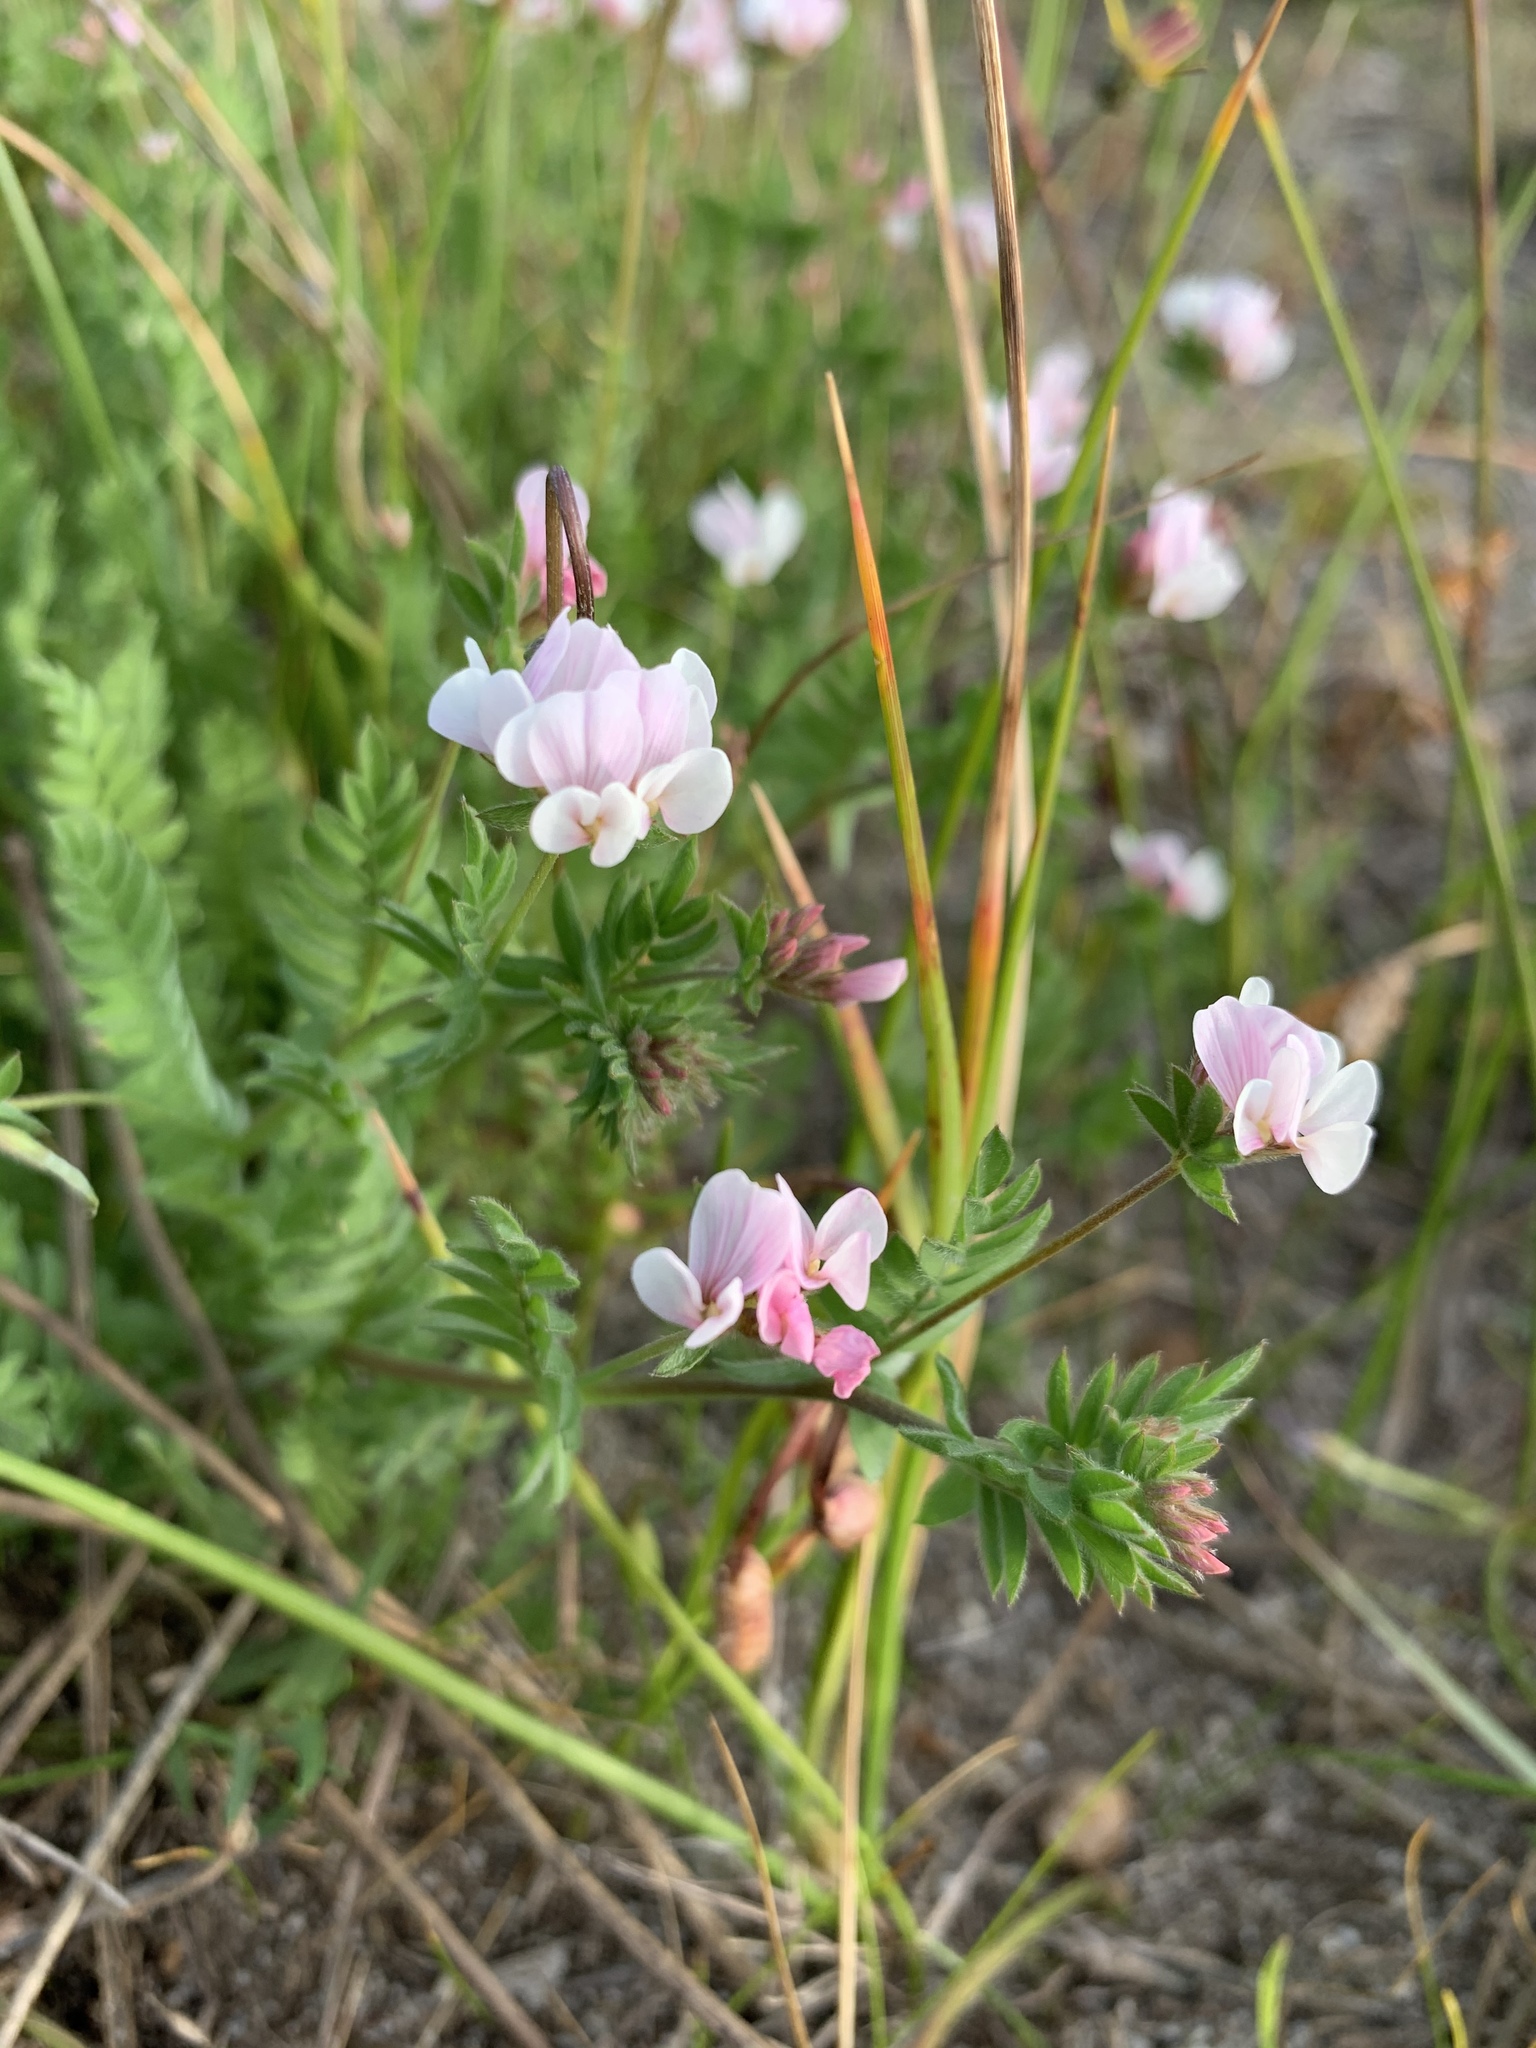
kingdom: Plantae
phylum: Tracheophyta
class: Magnoliopsida
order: Fabales
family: Fabaceae
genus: Ornithopus
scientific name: Ornithopus sativus
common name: Serradella
